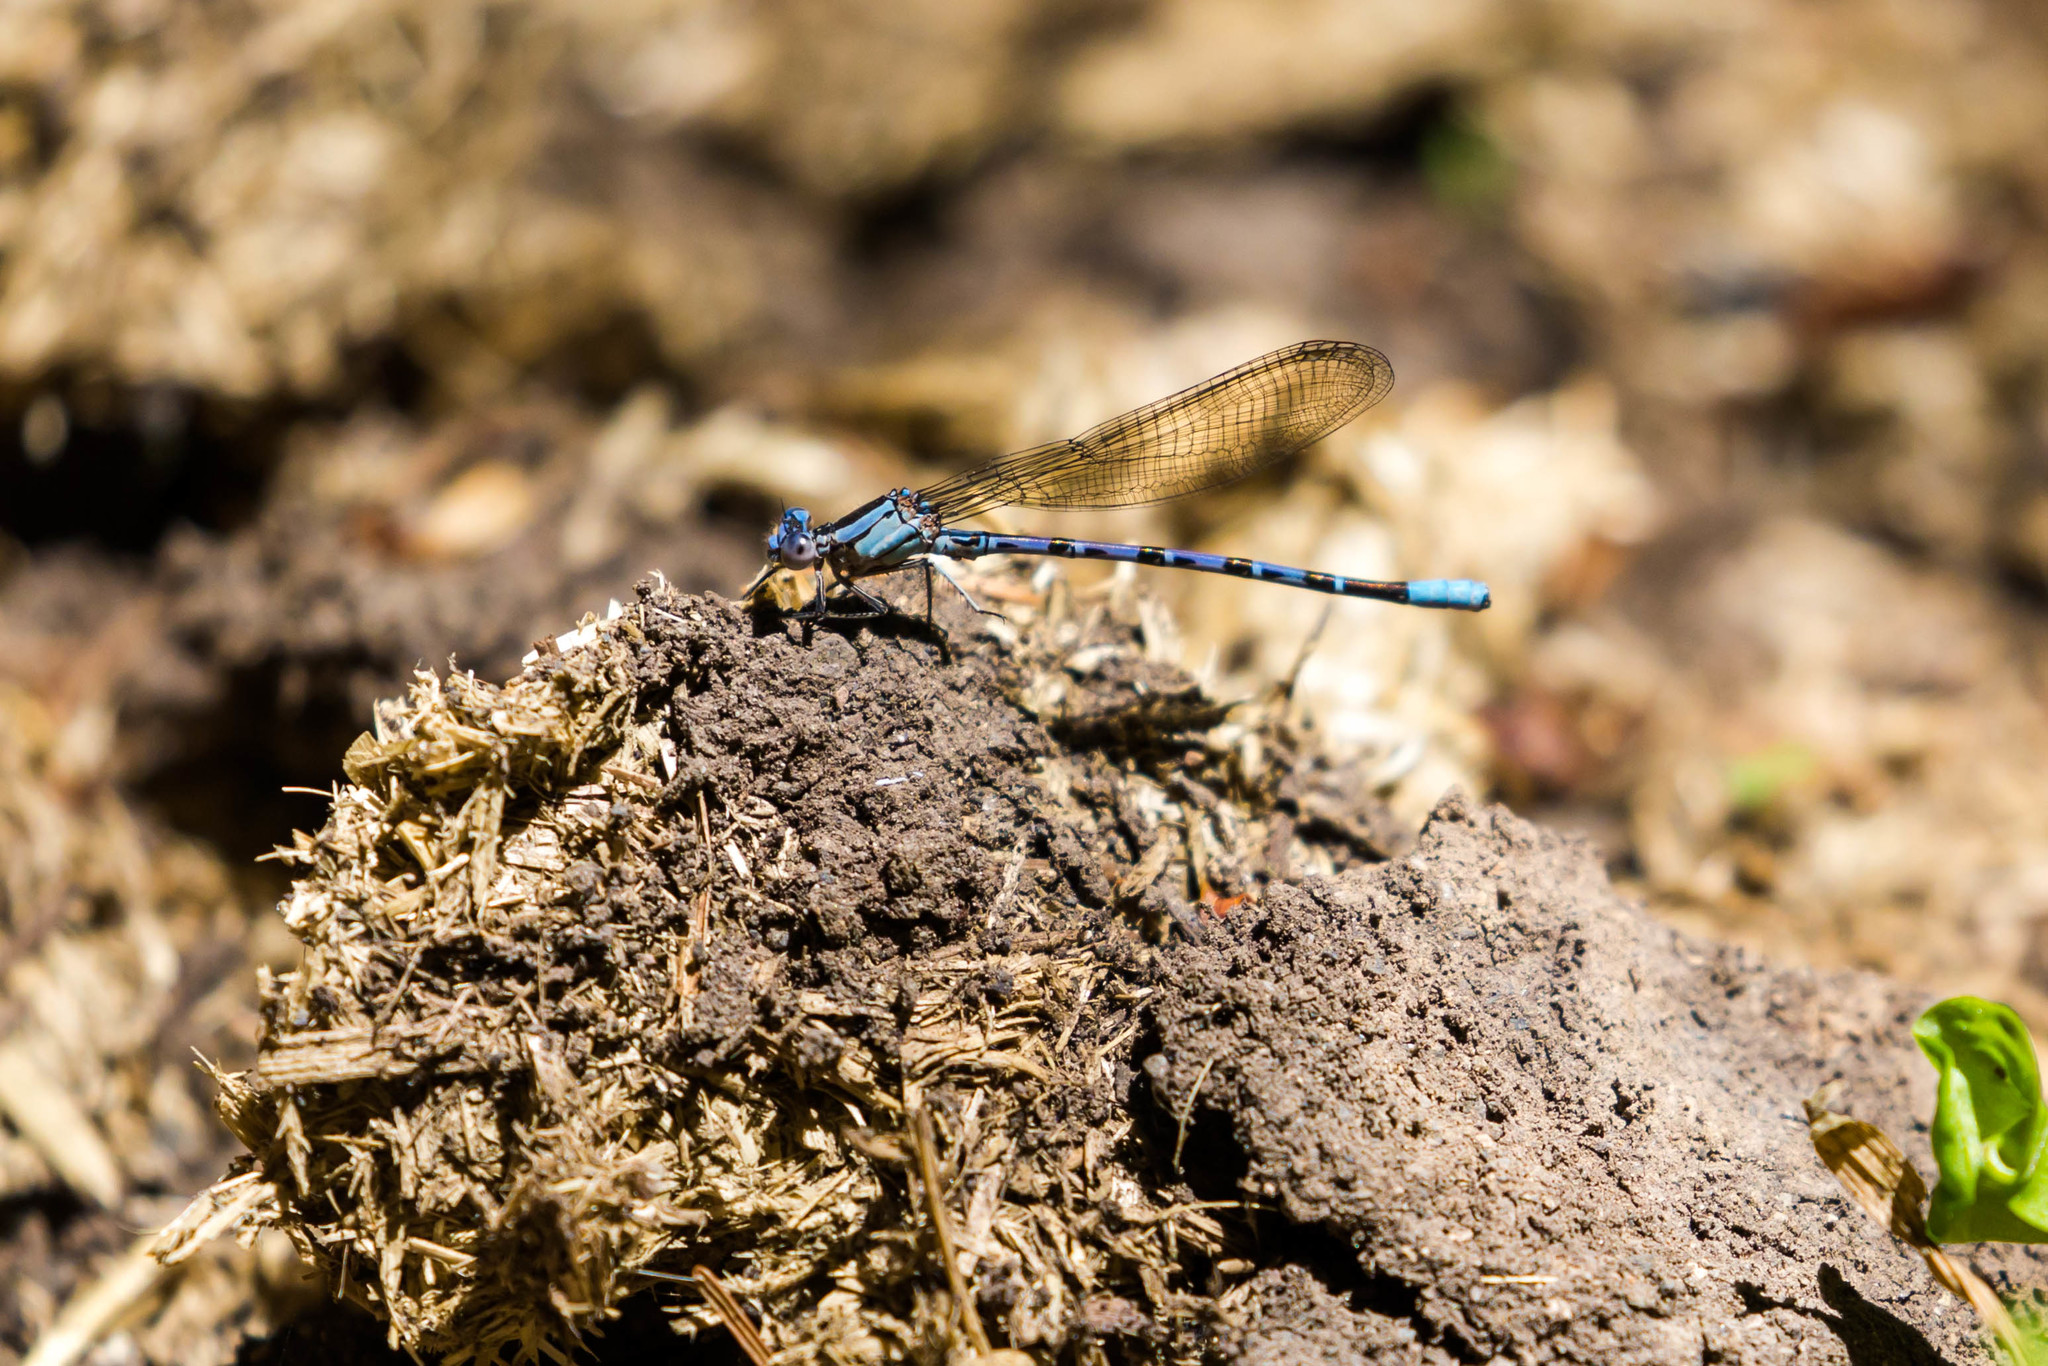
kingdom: Animalia
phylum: Arthropoda
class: Insecta
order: Odonata
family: Coenagrionidae
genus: Argia
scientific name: Argia vivida
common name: Vivid dancer
